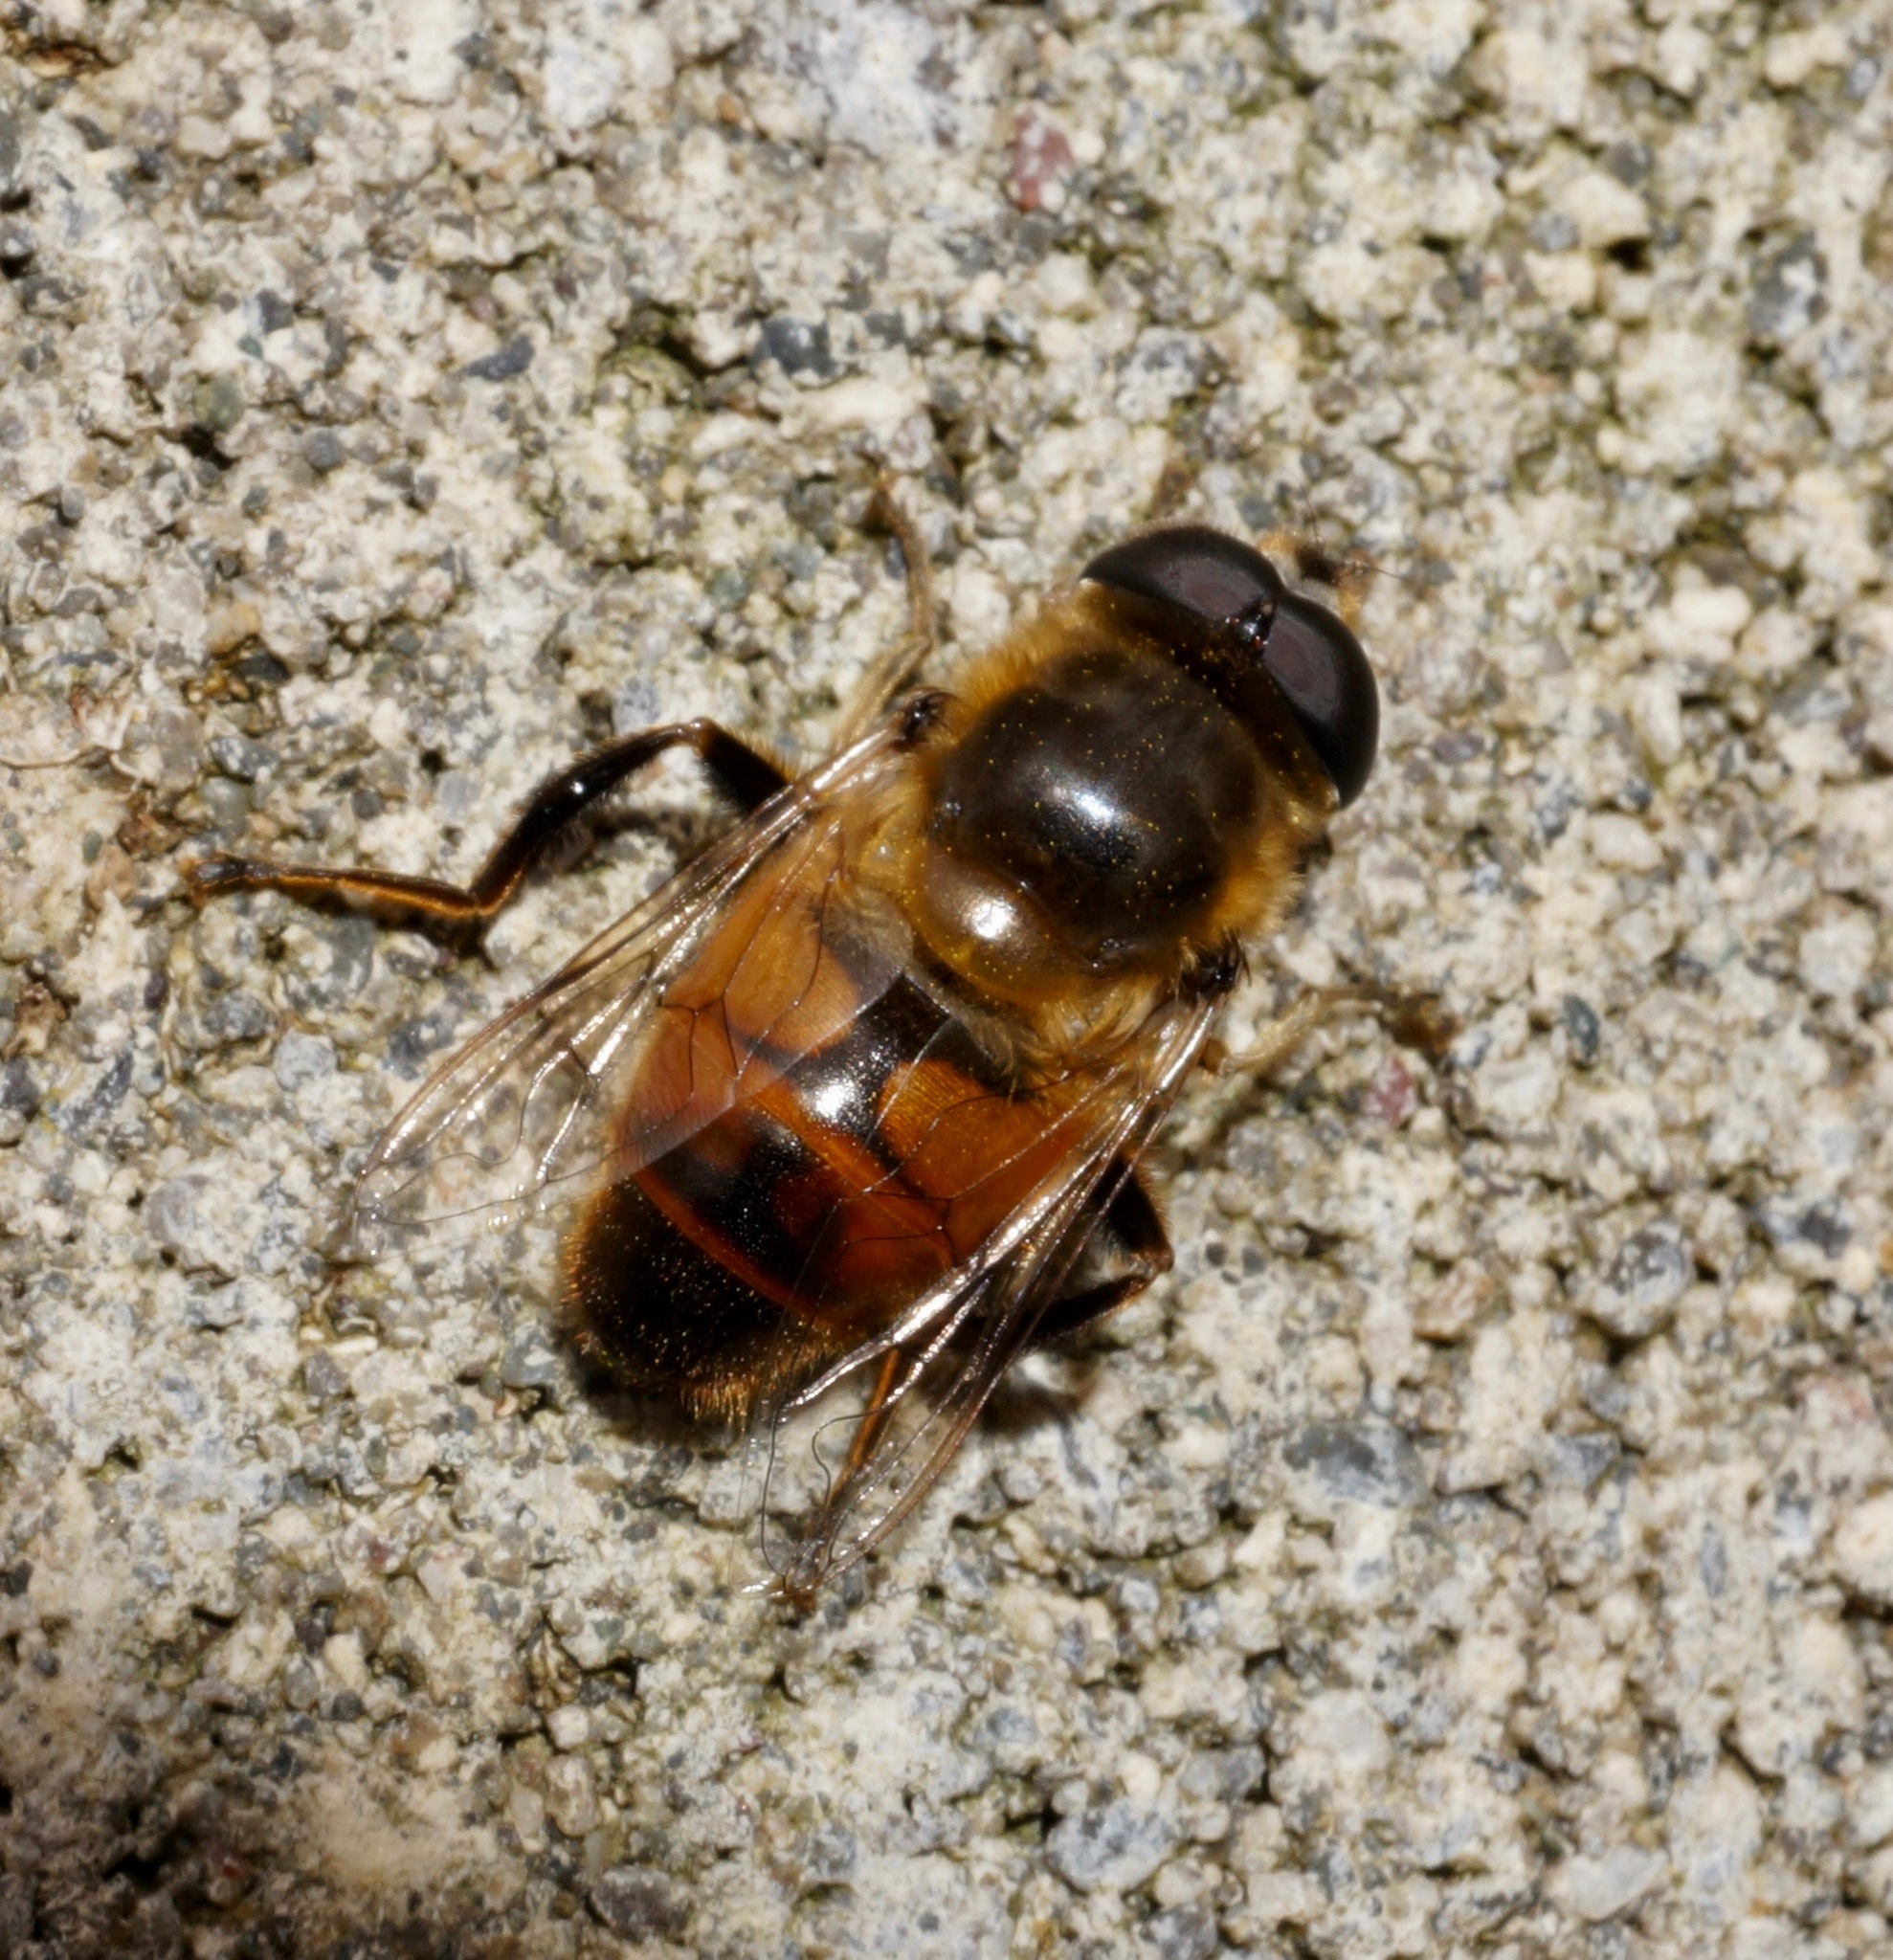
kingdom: Animalia
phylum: Arthropoda
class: Insecta
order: Diptera
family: Syrphidae
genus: Eristalis
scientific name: Eristalis tenax
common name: Drone fly
